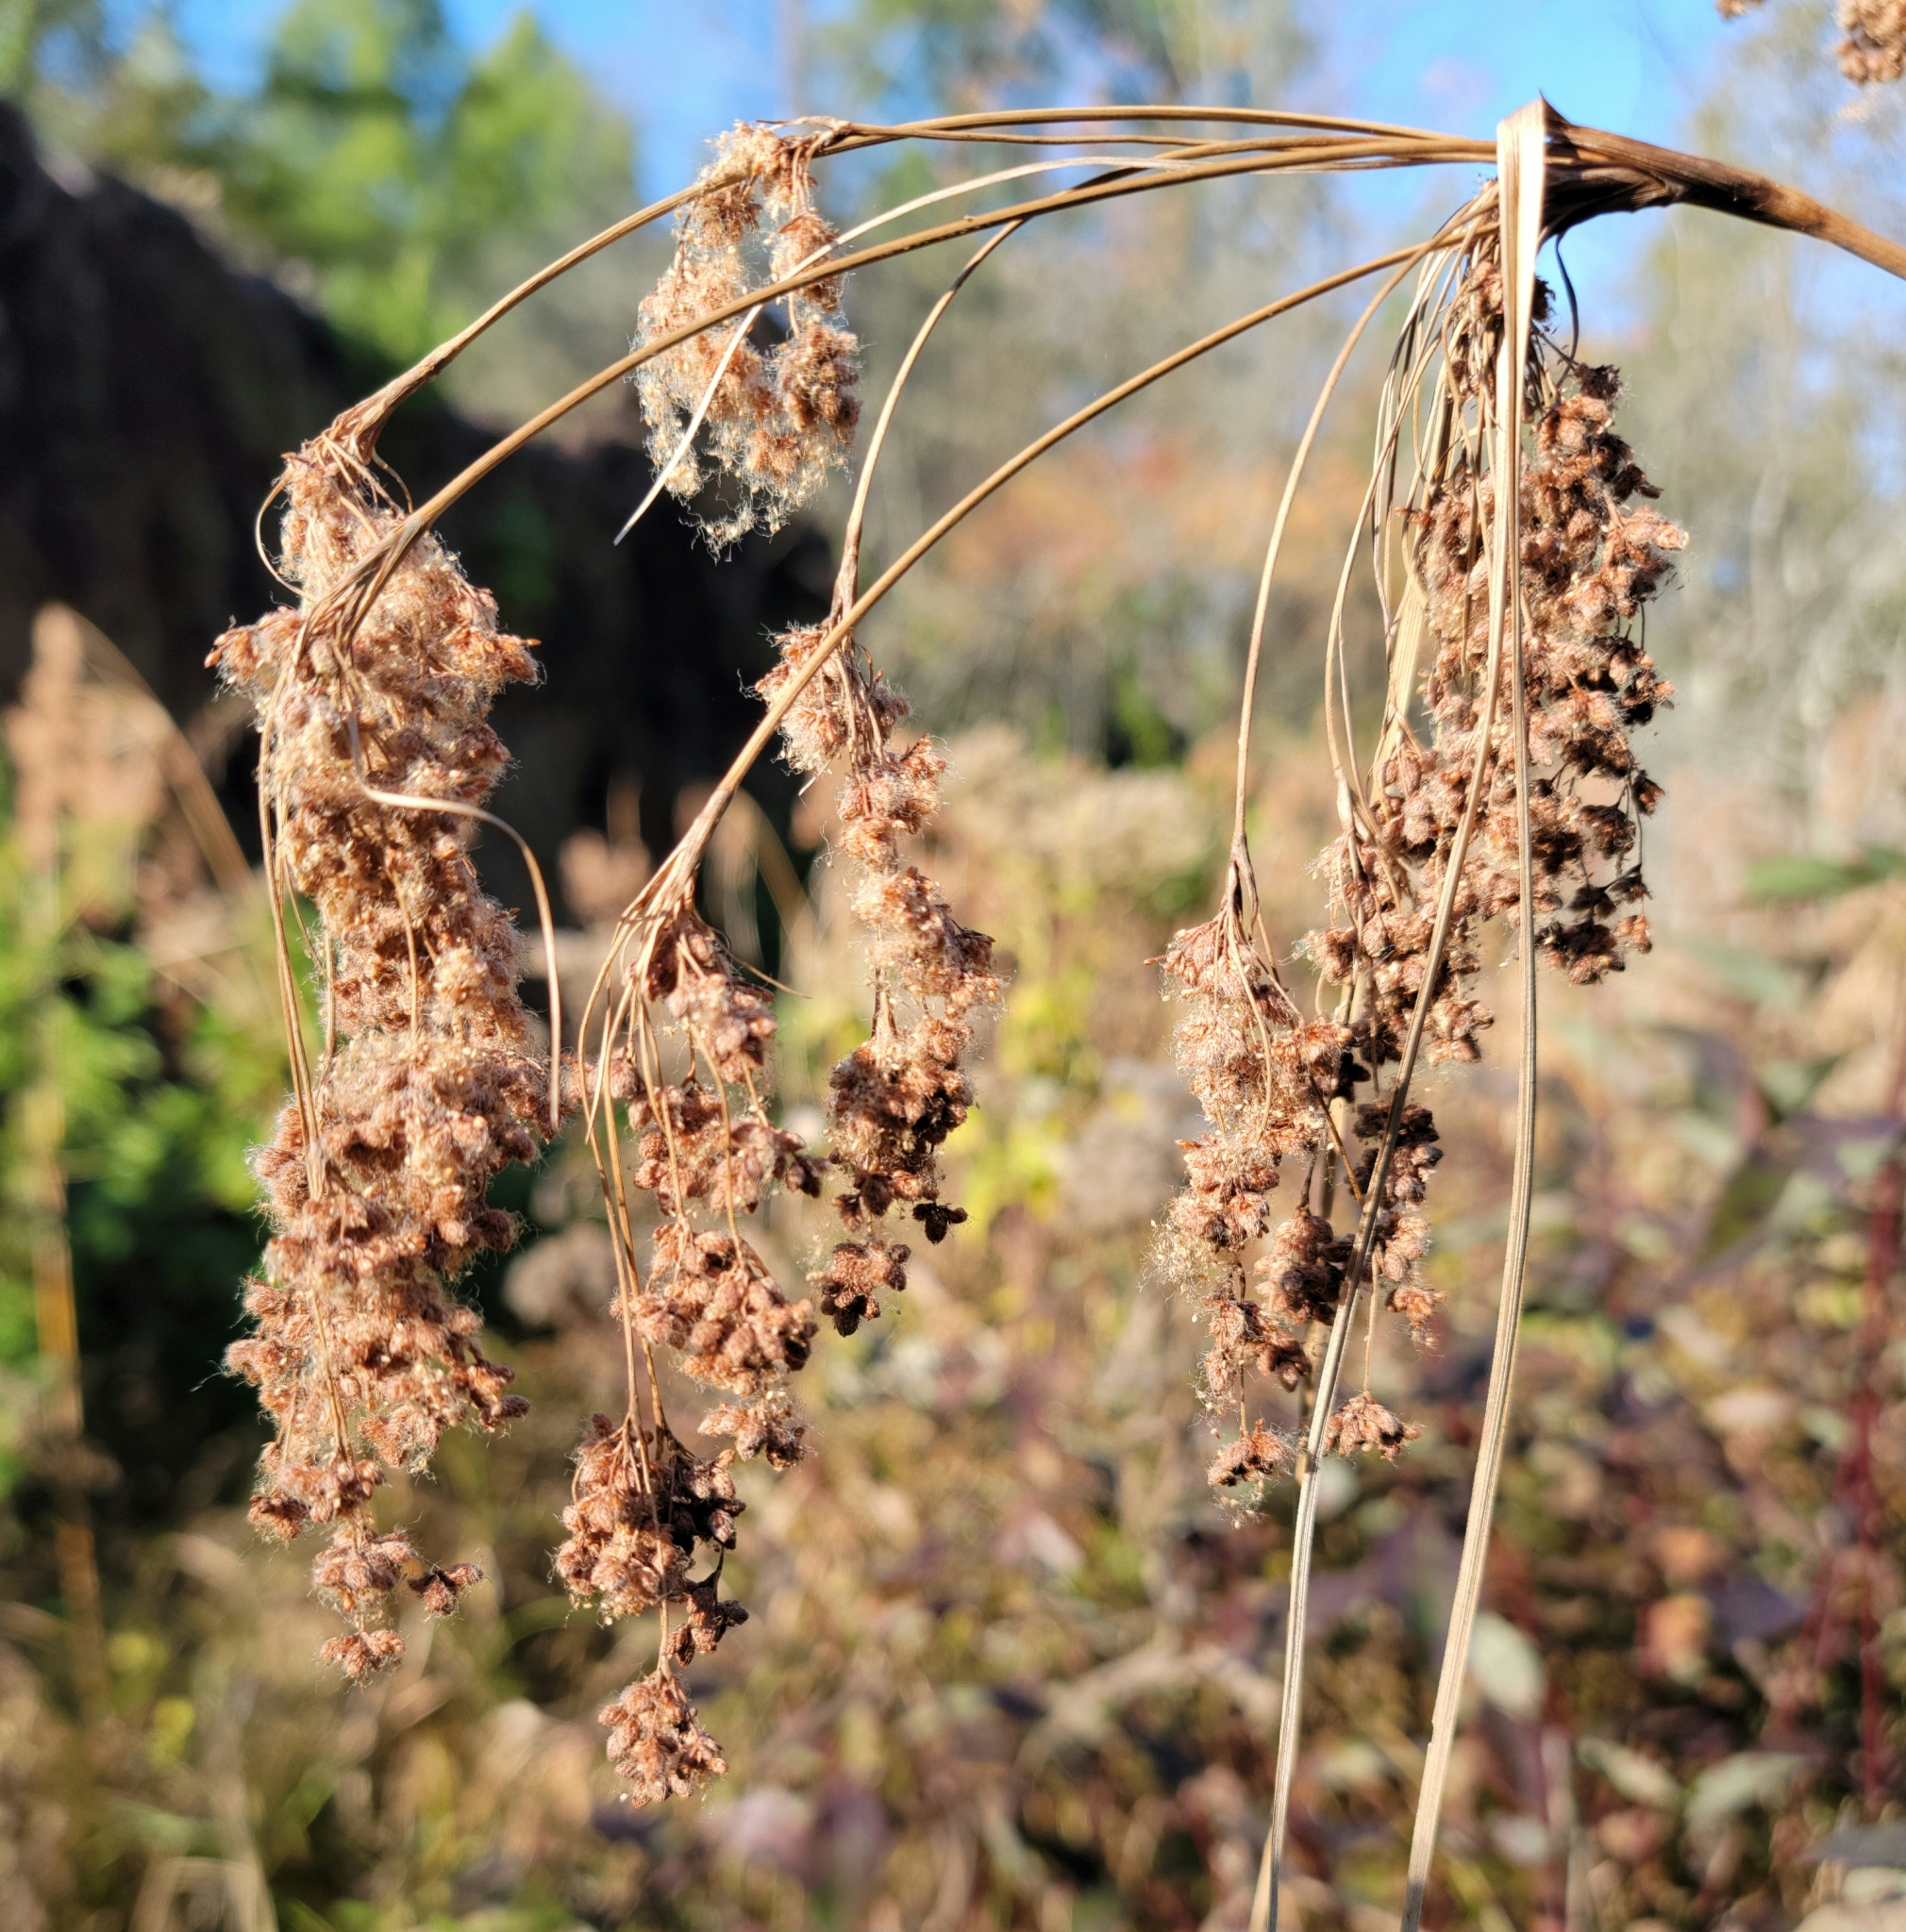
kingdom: Plantae
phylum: Tracheophyta
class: Liliopsida
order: Poales
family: Cyperaceae
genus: Scirpus
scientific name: Scirpus cyperinus
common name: Black-sheathed bulrush
